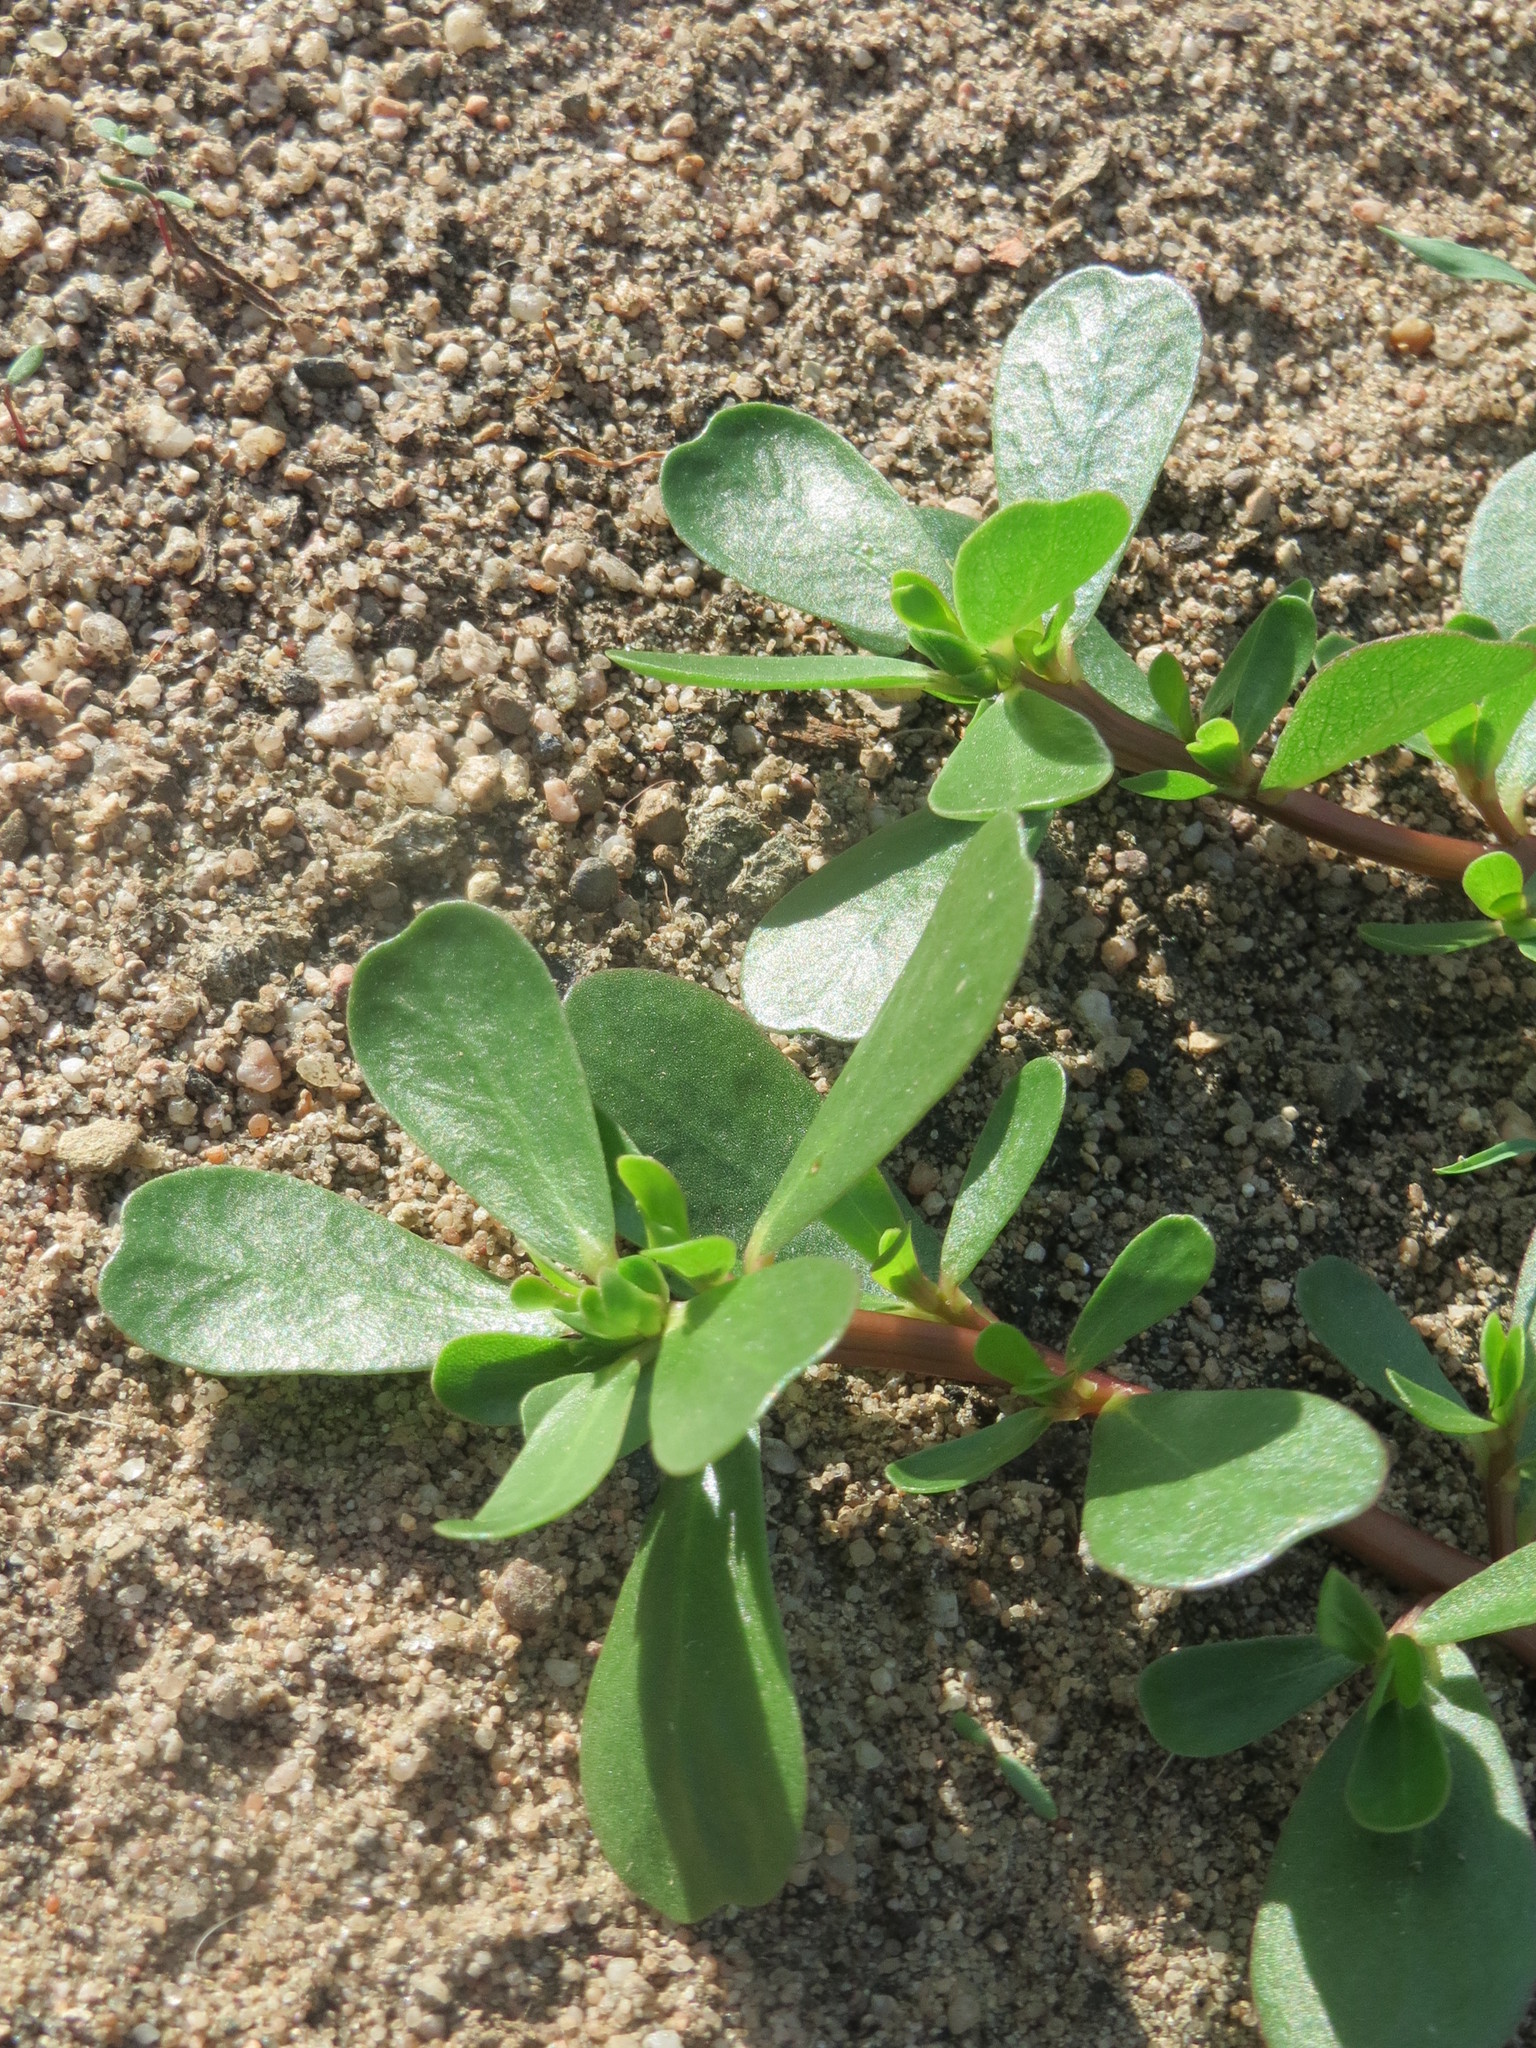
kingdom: Plantae
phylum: Tracheophyta
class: Magnoliopsida
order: Caryophyllales
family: Portulacaceae
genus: Portulaca
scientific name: Portulaca oleracea
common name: Common purslane
